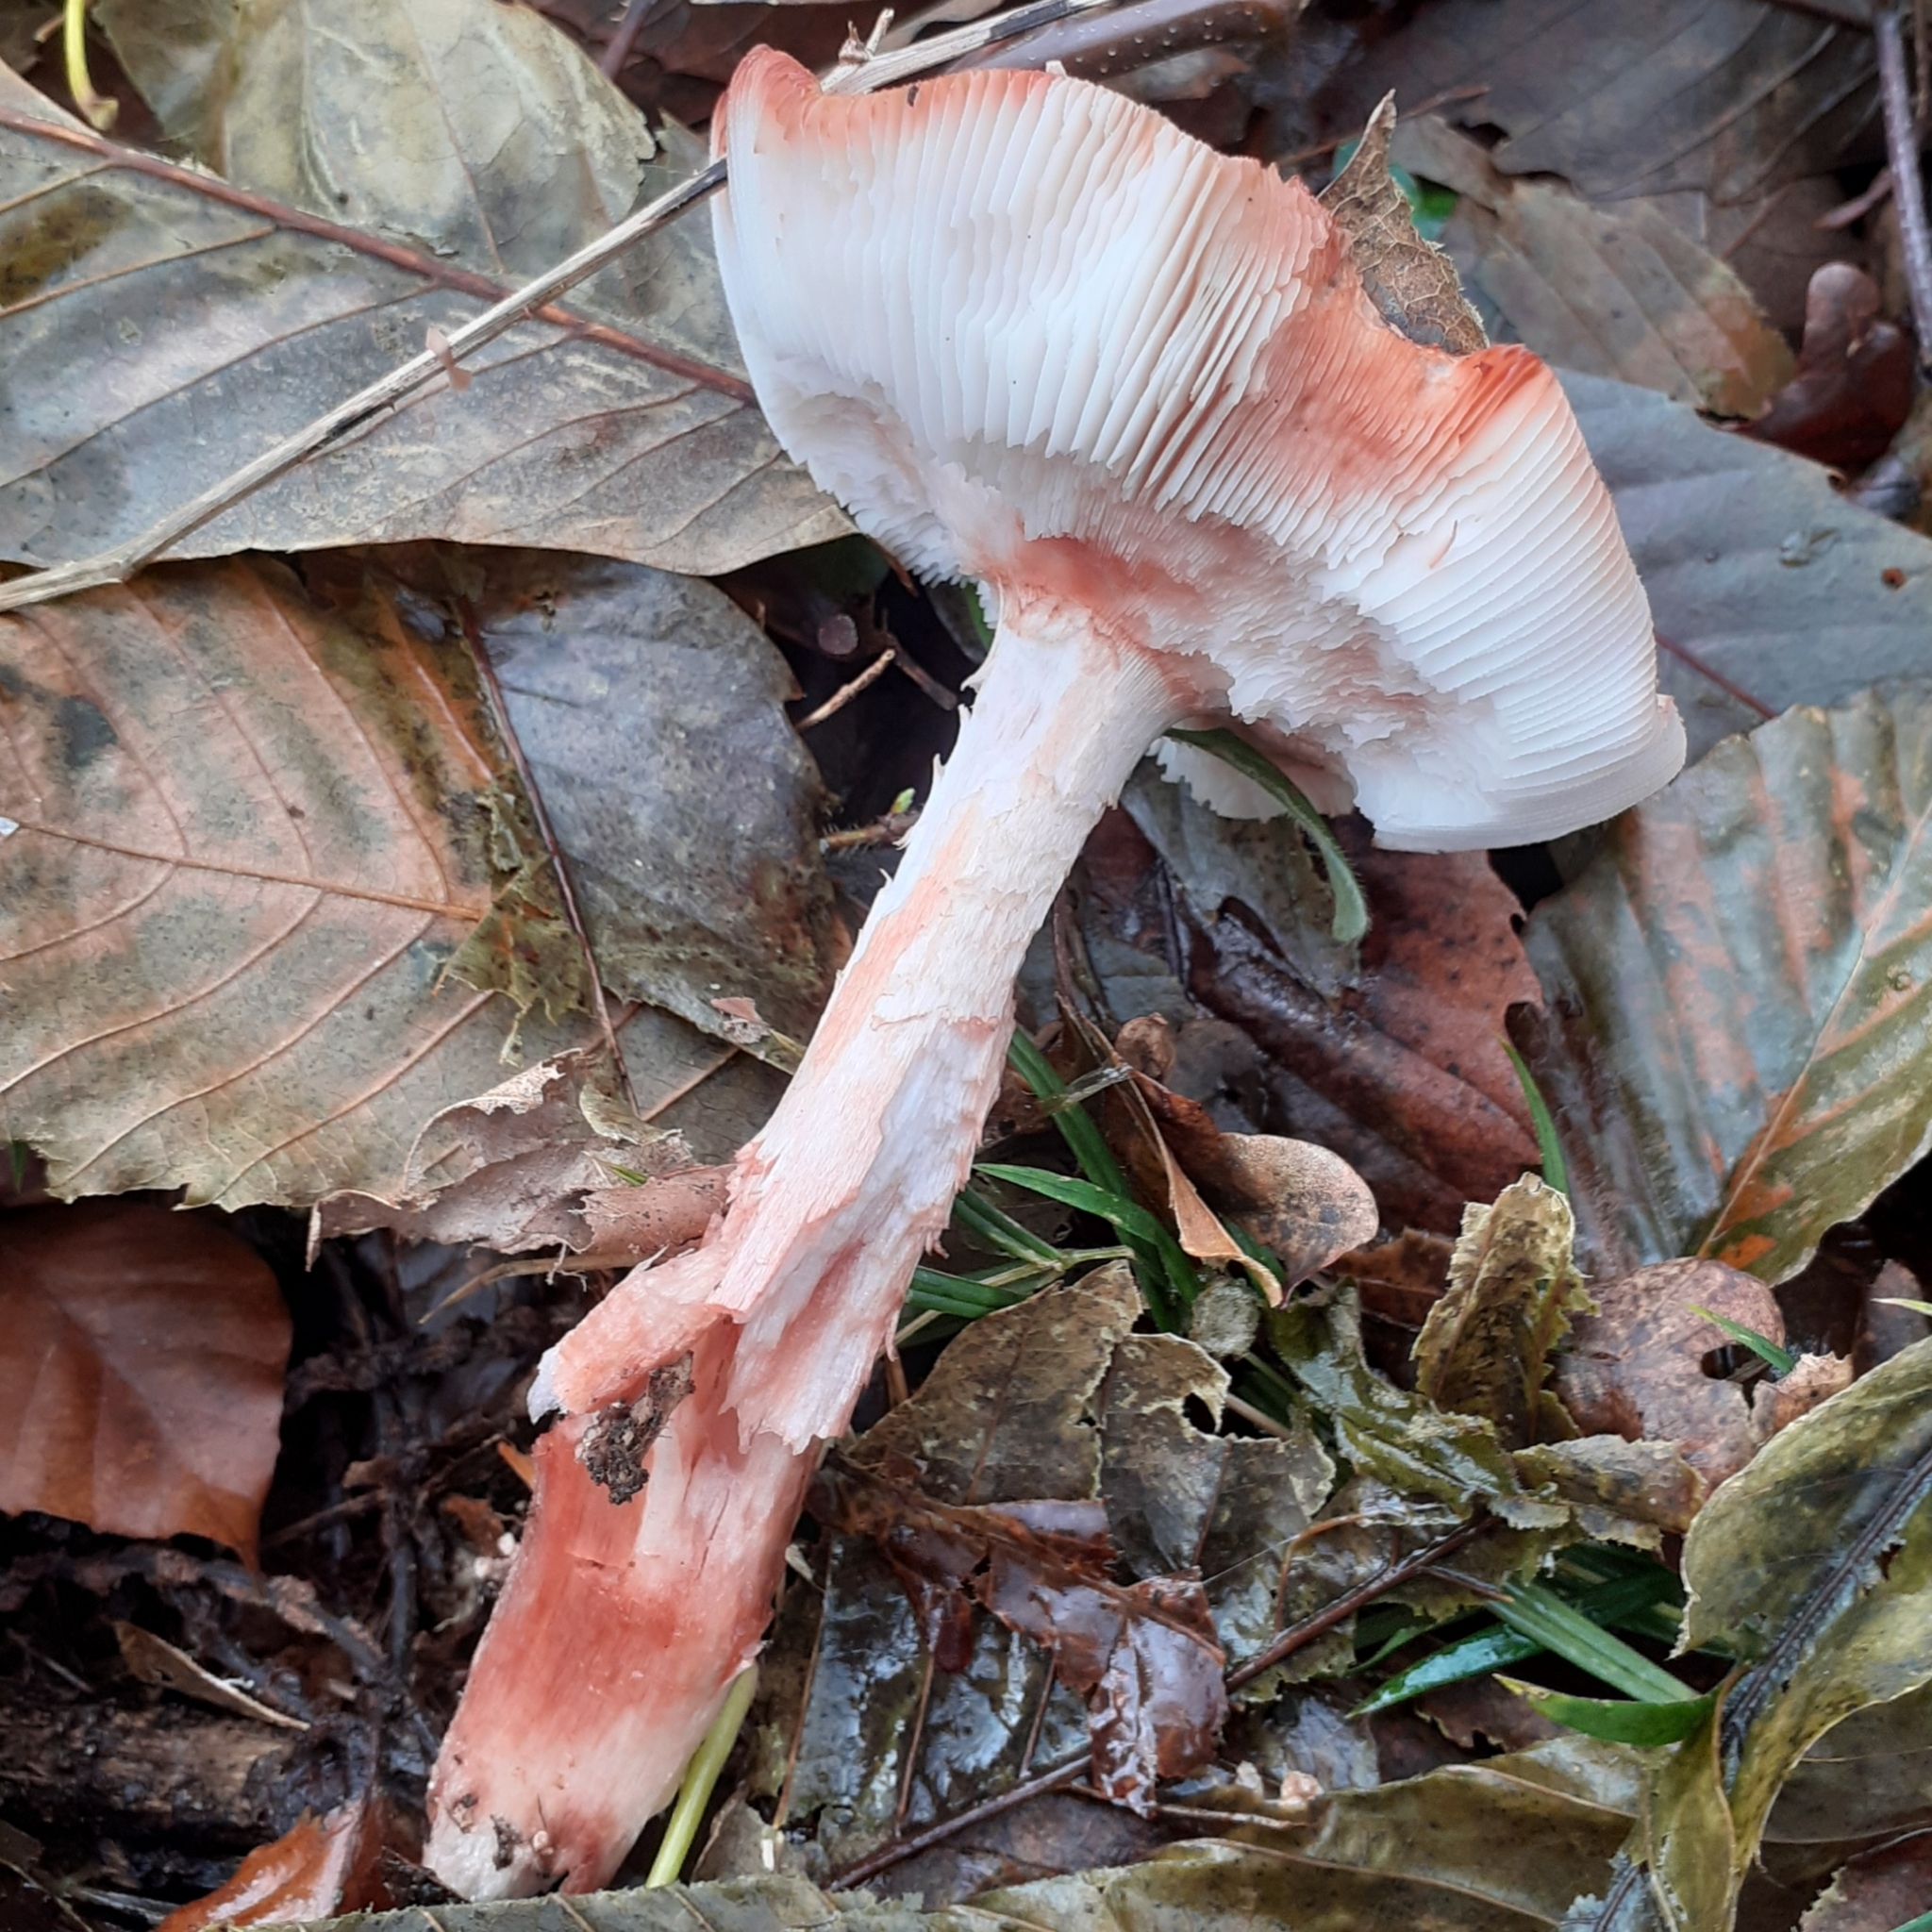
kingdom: Fungi
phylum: Basidiomycota
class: Agaricomycetes
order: Agaricales
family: Amanitaceae
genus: Amanita
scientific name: Amanita rubescens
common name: Blusher
